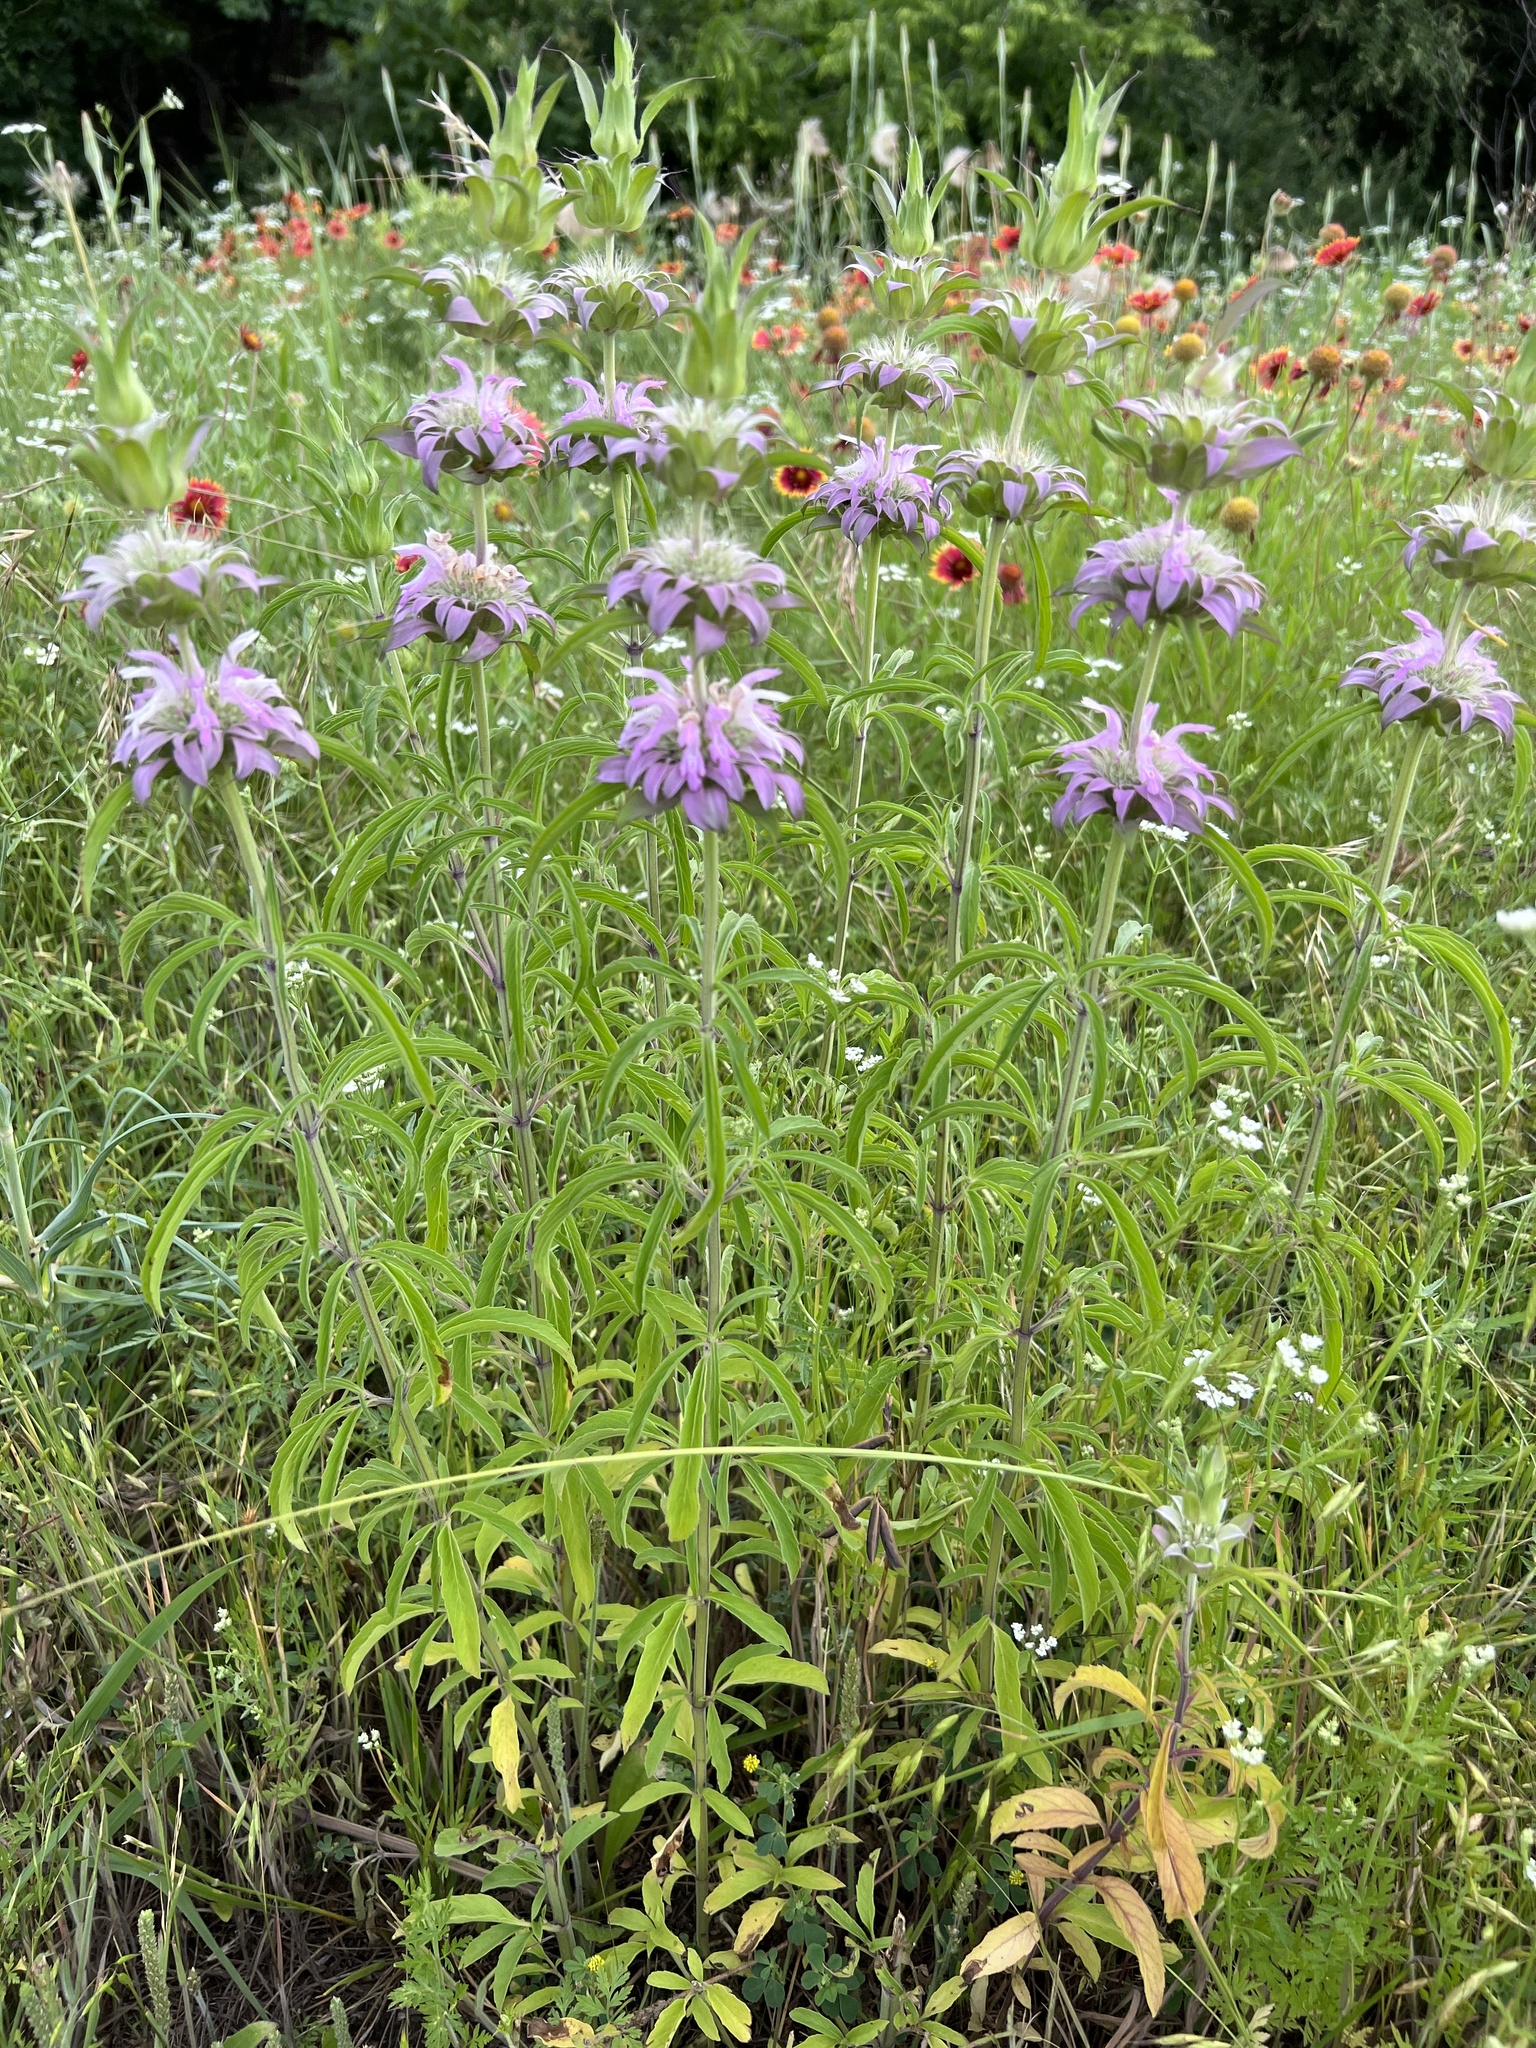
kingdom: Plantae
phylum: Tracheophyta
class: Magnoliopsida
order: Lamiales
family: Lamiaceae
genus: Monarda
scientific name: Monarda citriodora
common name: Lemon beebalm
